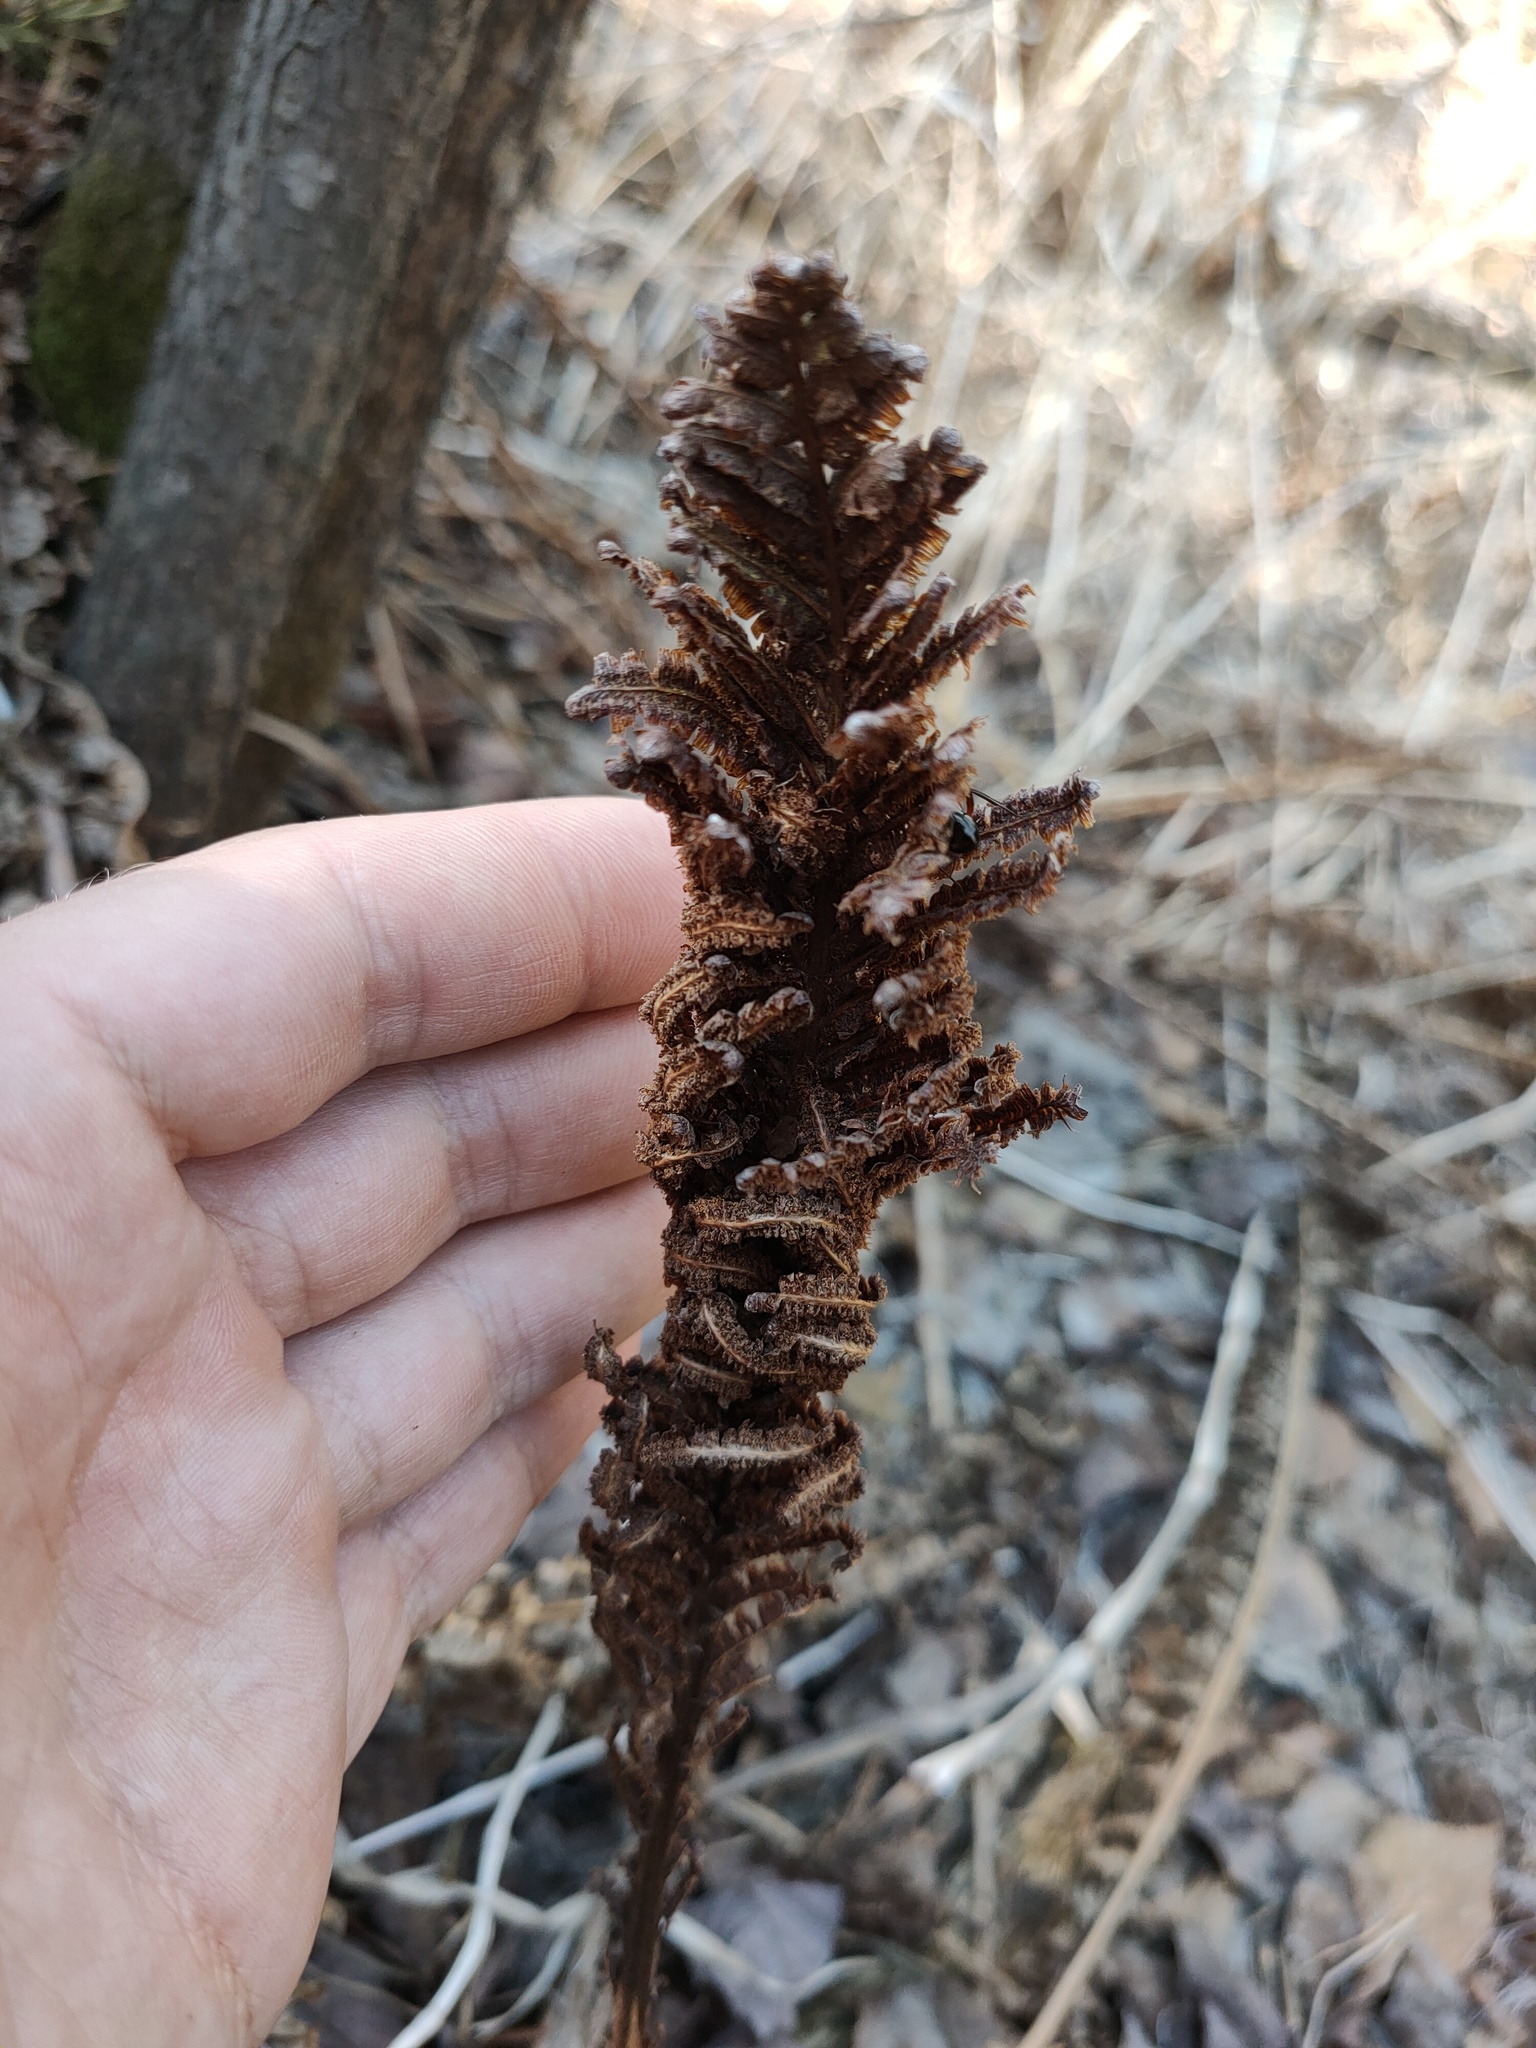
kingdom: Plantae
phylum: Tracheophyta
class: Polypodiopsida
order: Polypodiales
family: Onocleaceae
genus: Matteuccia
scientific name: Matteuccia struthiopteris
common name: Ostrich fern
